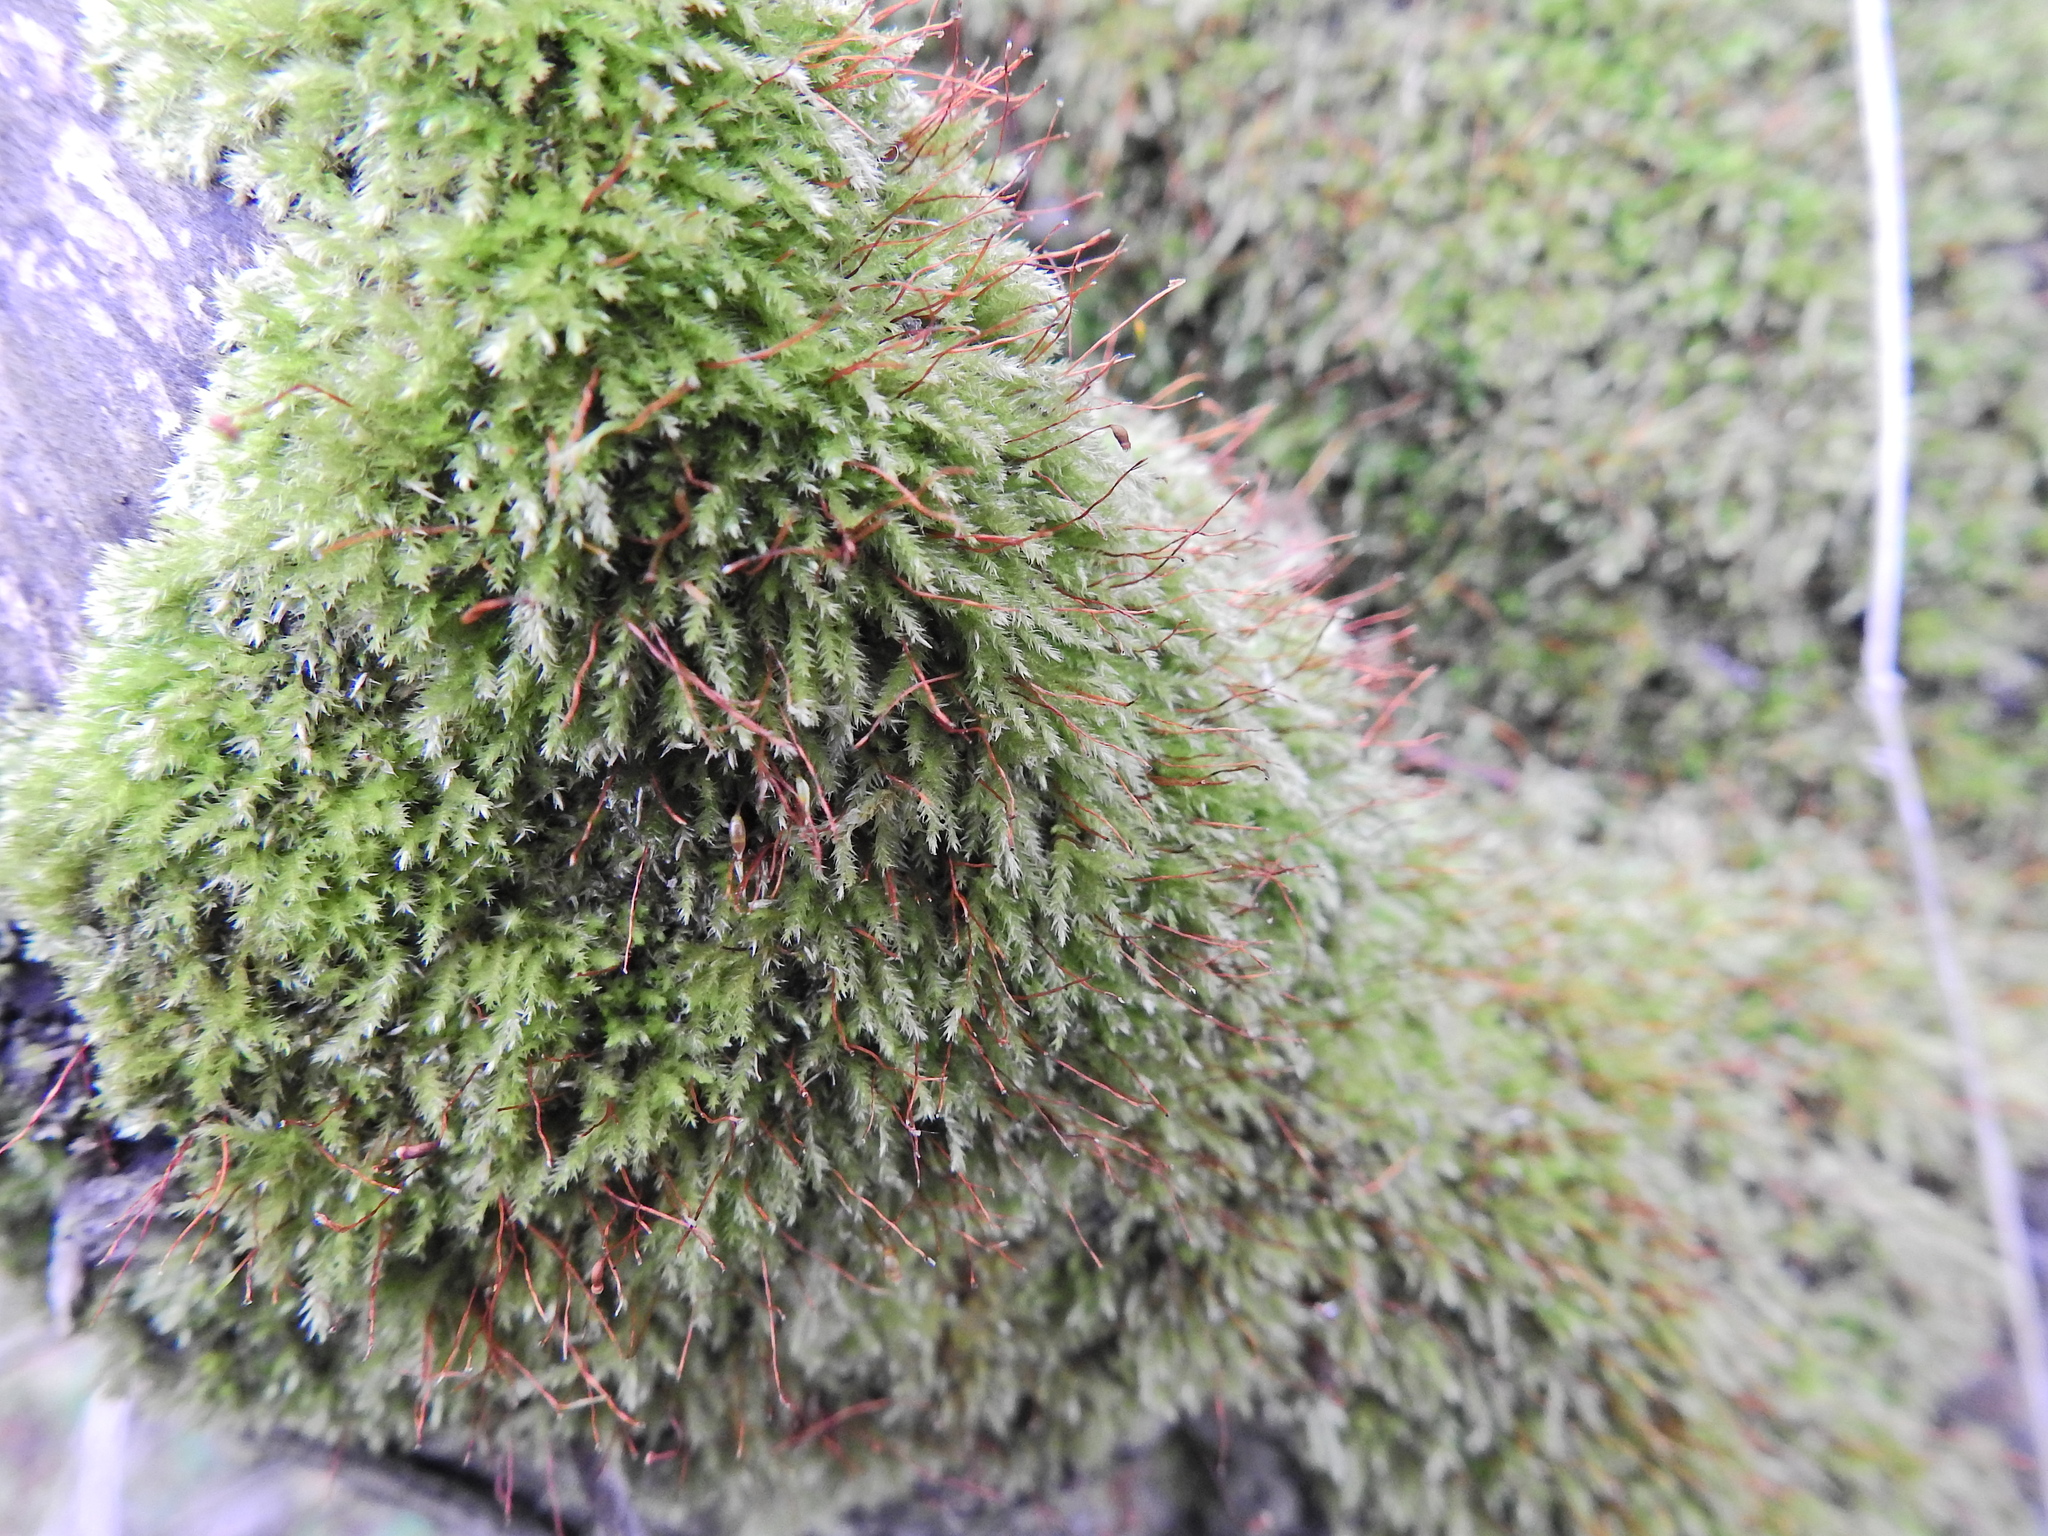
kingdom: Plantae
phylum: Bryophyta
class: Bryopsida
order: Hypnales
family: Brachytheciaceae
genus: Rhynchostegium
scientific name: Rhynchostegium confertum
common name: Clustered feather-moss
